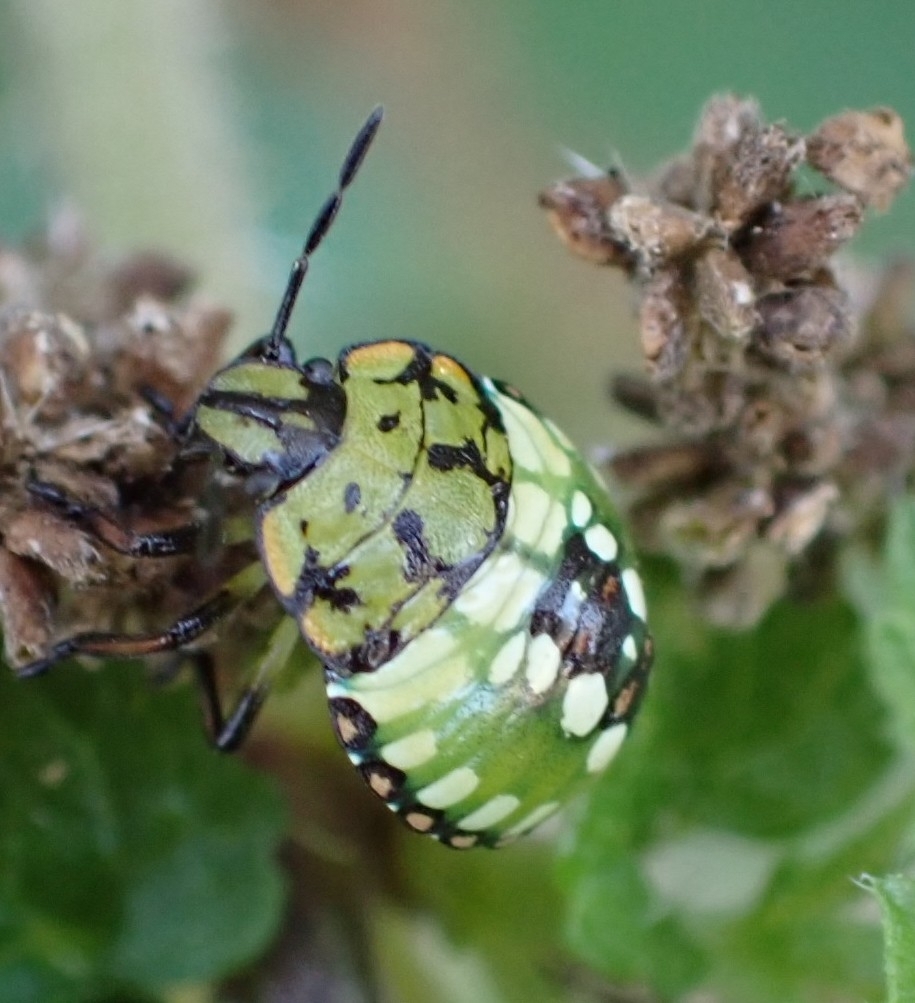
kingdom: Animalia
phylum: Arthropoda
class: Insecta
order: Hemiptera
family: Pentatomidae
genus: Nezara
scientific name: Nezara viridula
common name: Southern green stink bug
